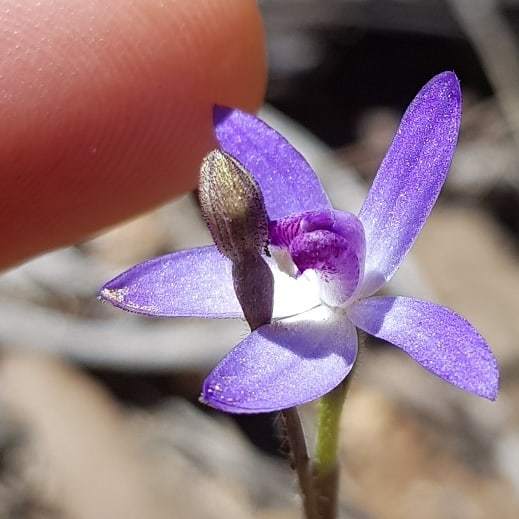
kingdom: Plantae
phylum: Tracheophyta
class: Liliopsida
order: Asparagales
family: Orchidaceae
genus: Caladenia
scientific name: Caladenia amplexans
